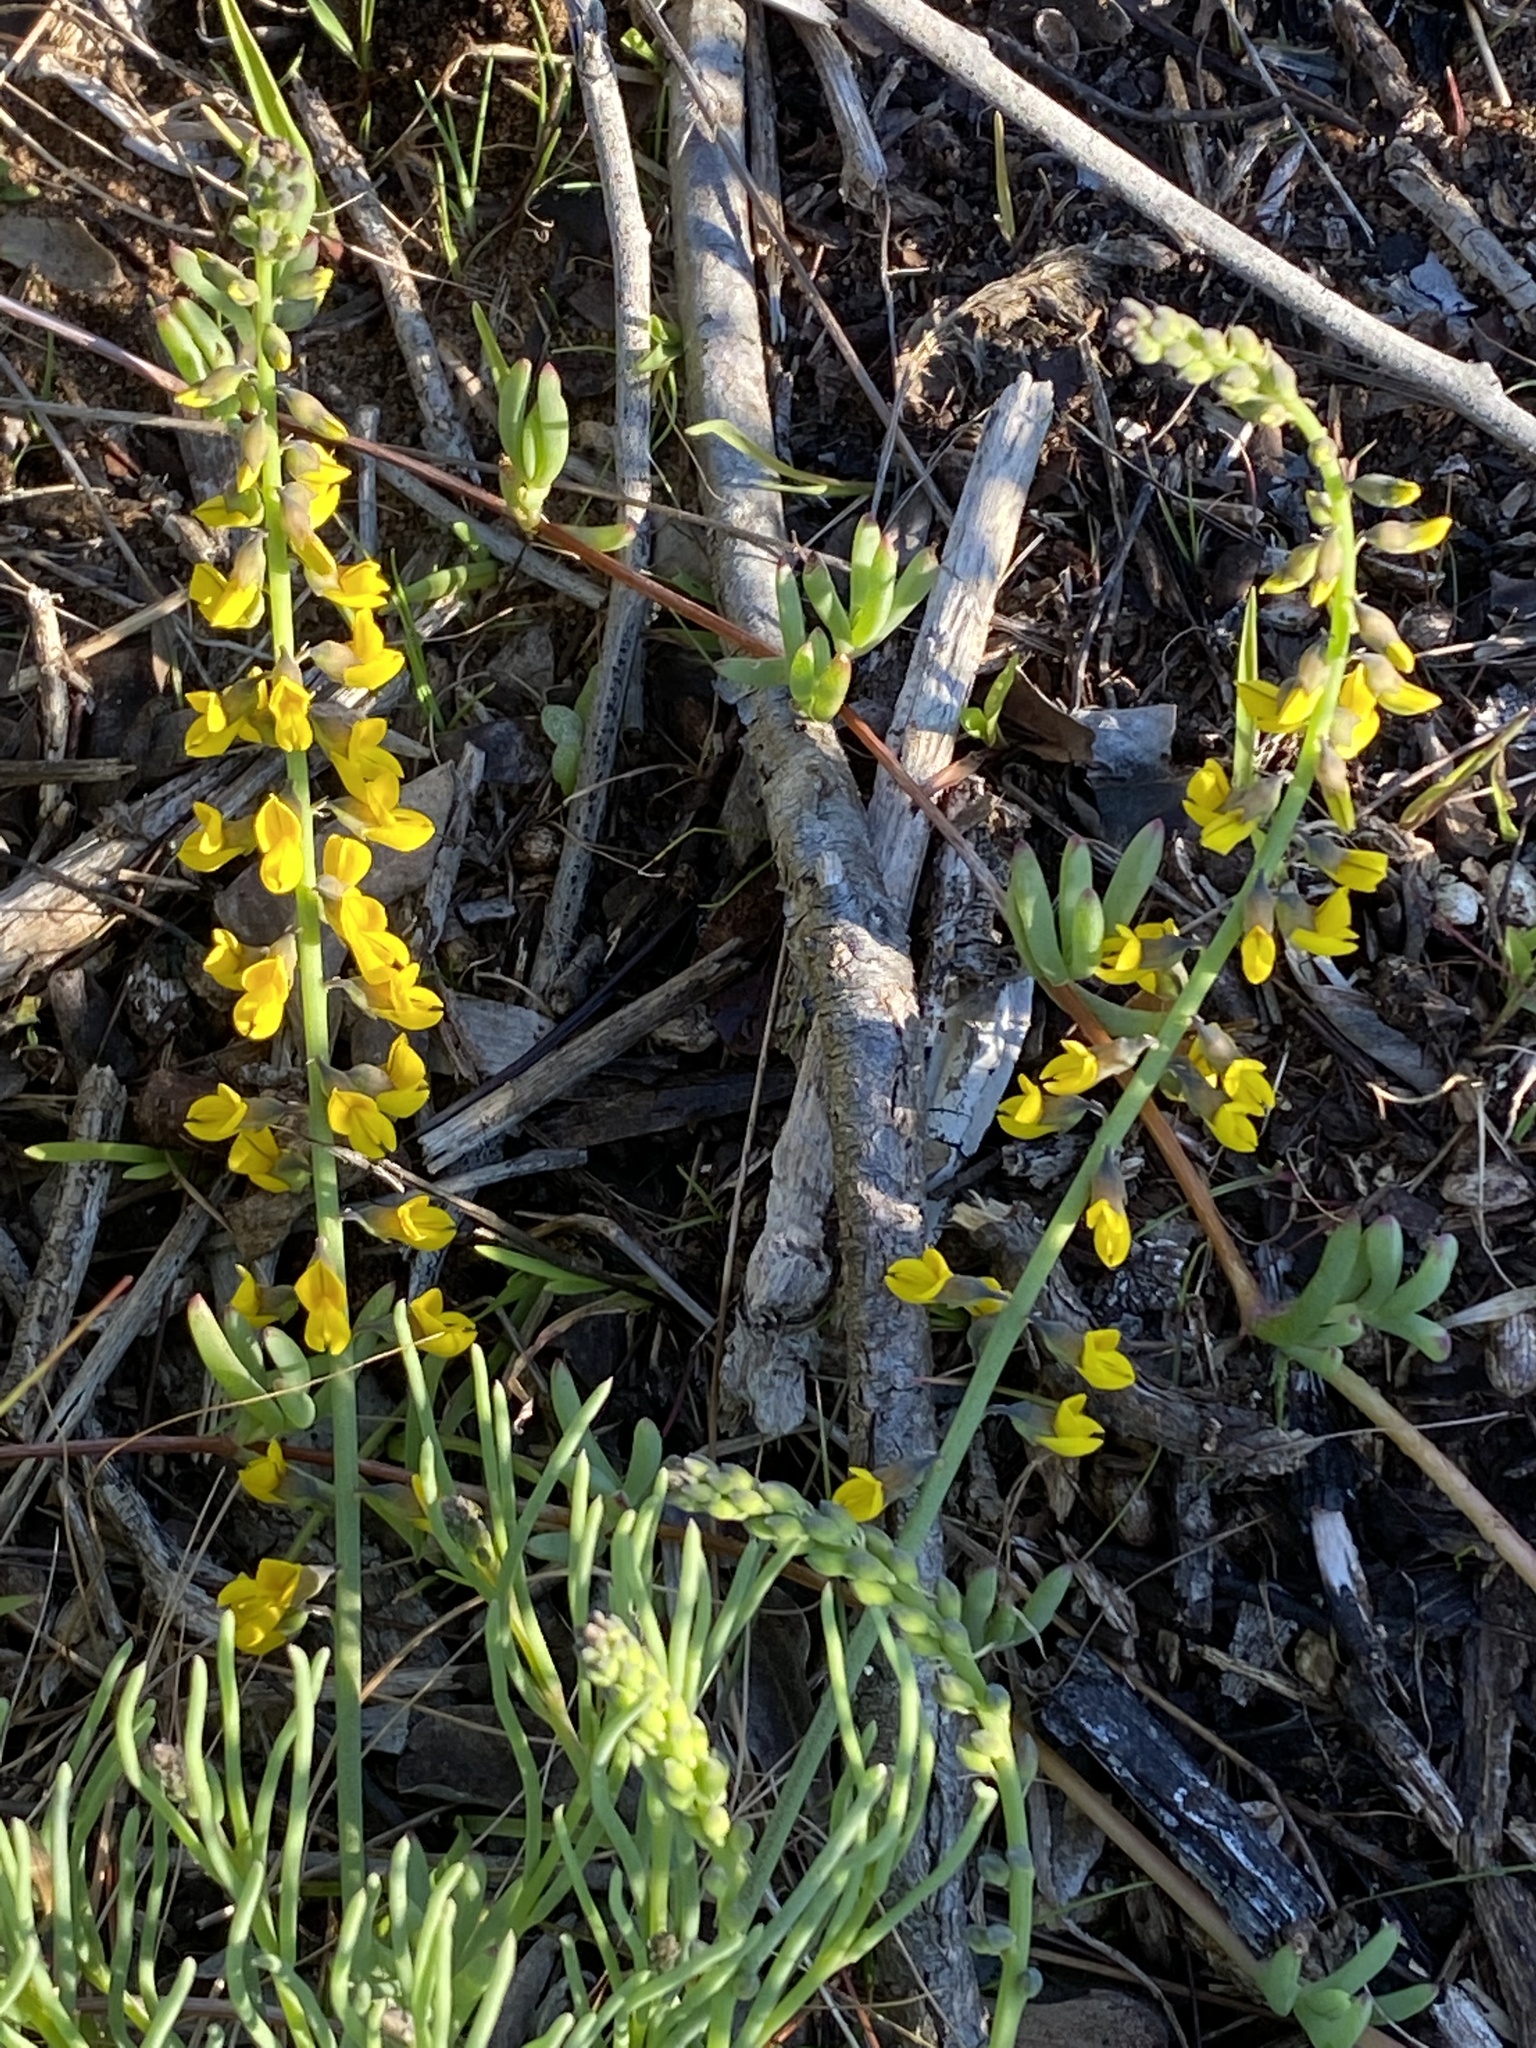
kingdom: Plantae
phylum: Tracheophyta
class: Magnoliopsida
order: Fabales
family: Fabaceae
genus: Lebeckia
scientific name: Lebeckia gracilis
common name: Slender ganna
